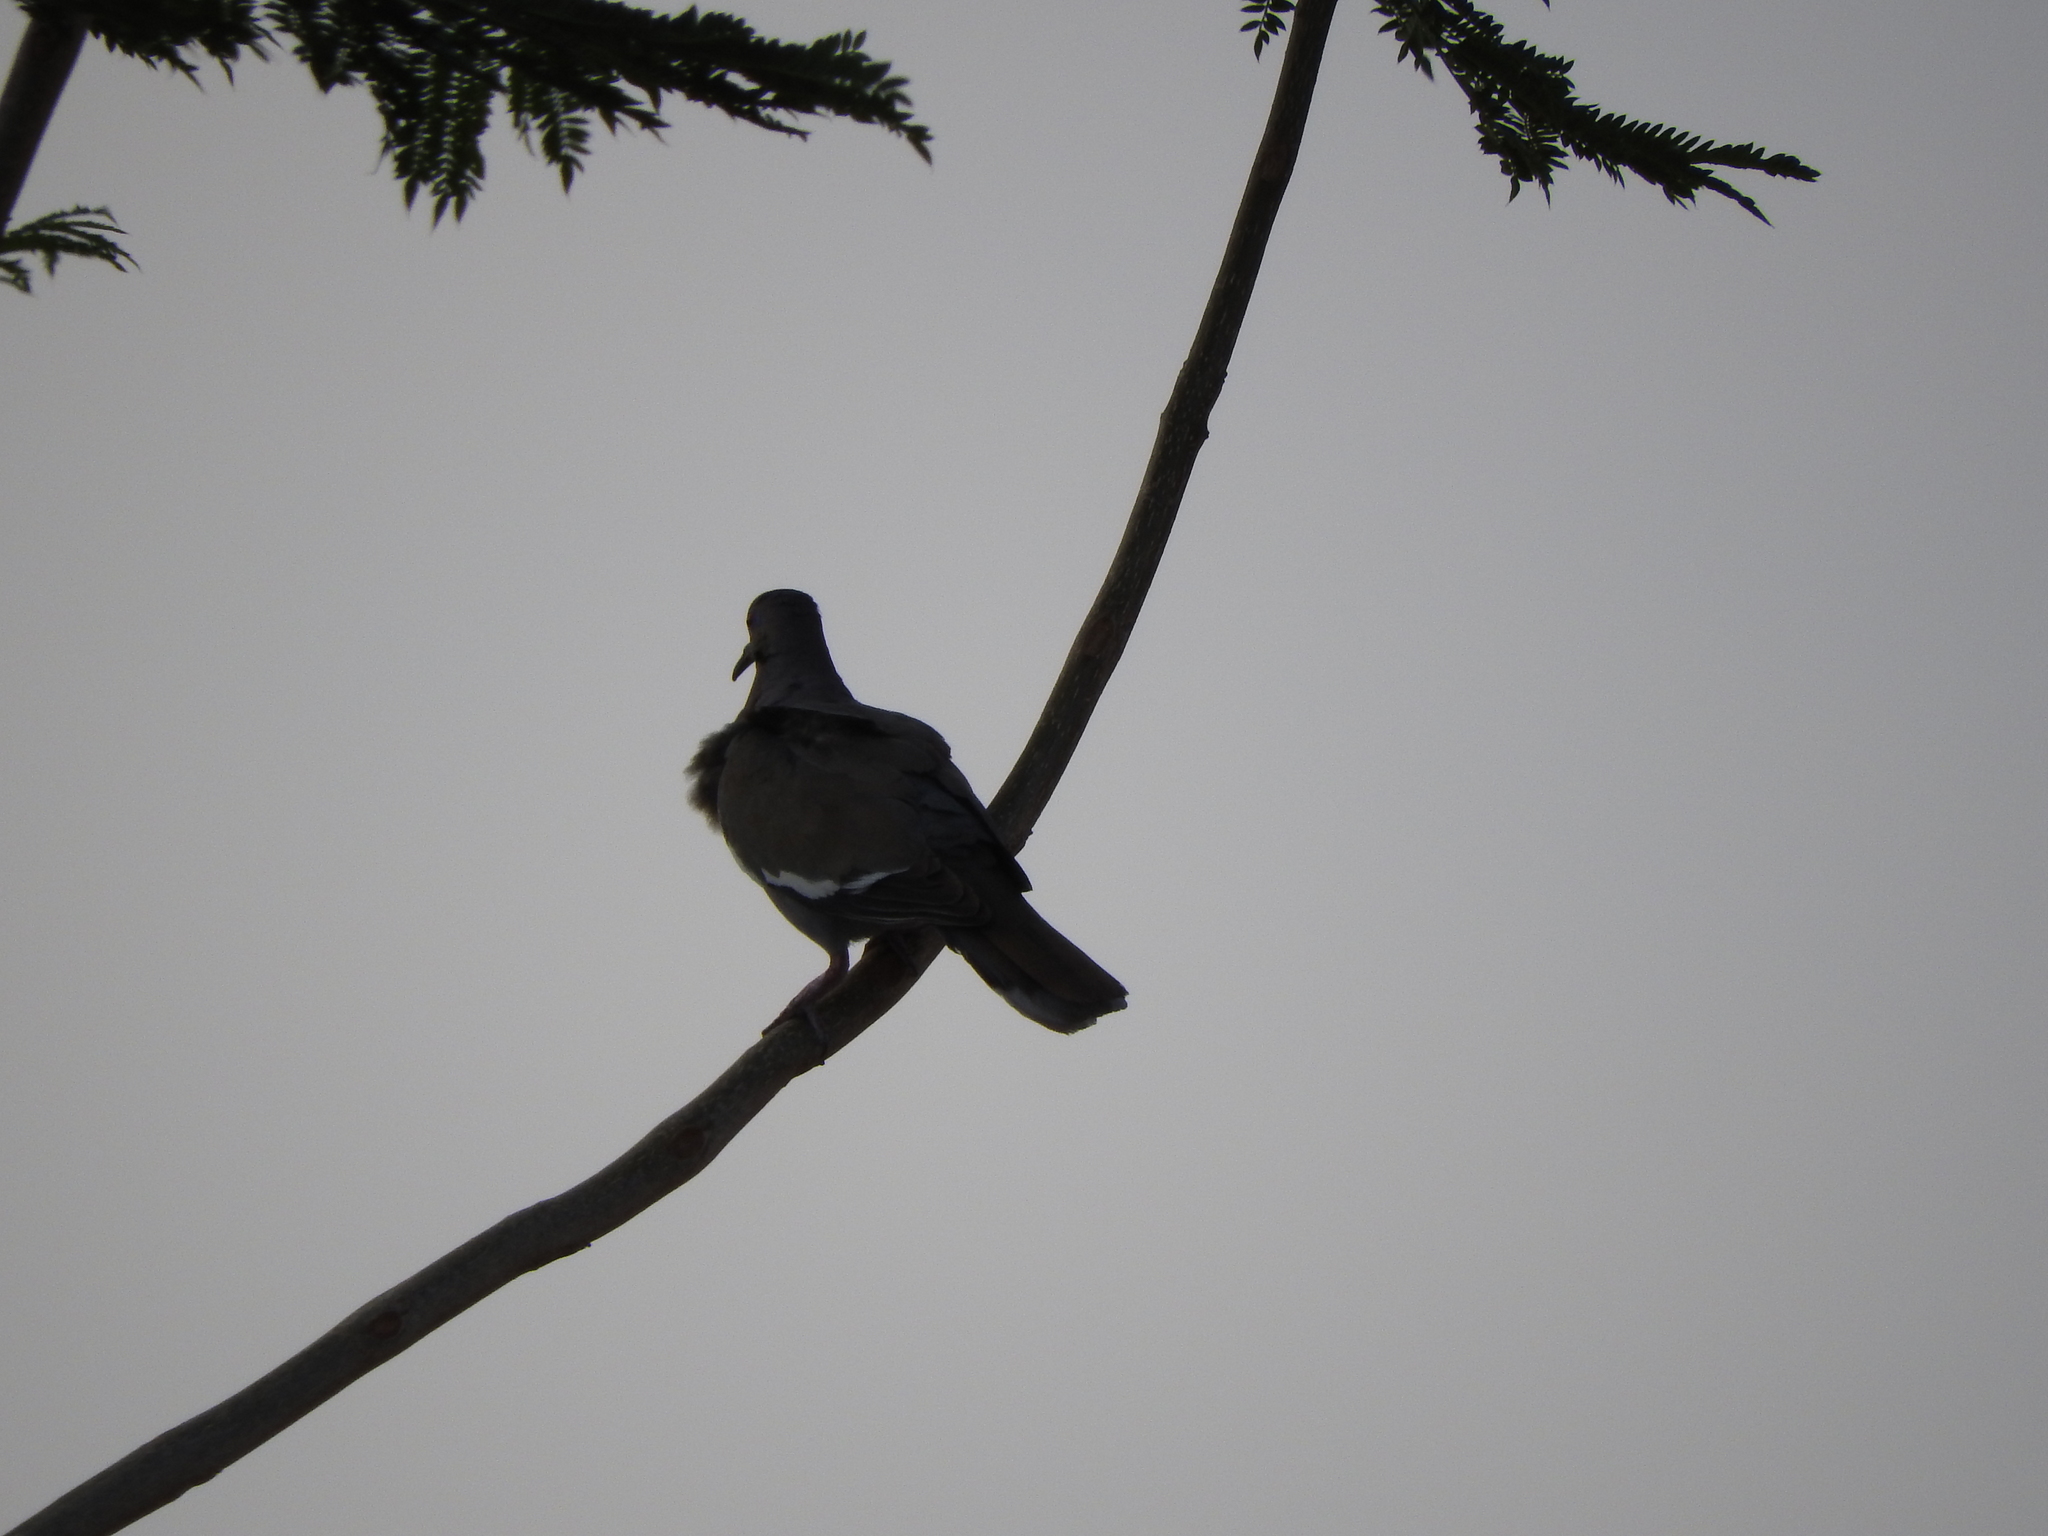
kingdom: Animalia
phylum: Chordata
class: Aves
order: Columbiformes
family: Columbidae
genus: Zenaida
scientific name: Zenaida asiatica
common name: White-winged dove
